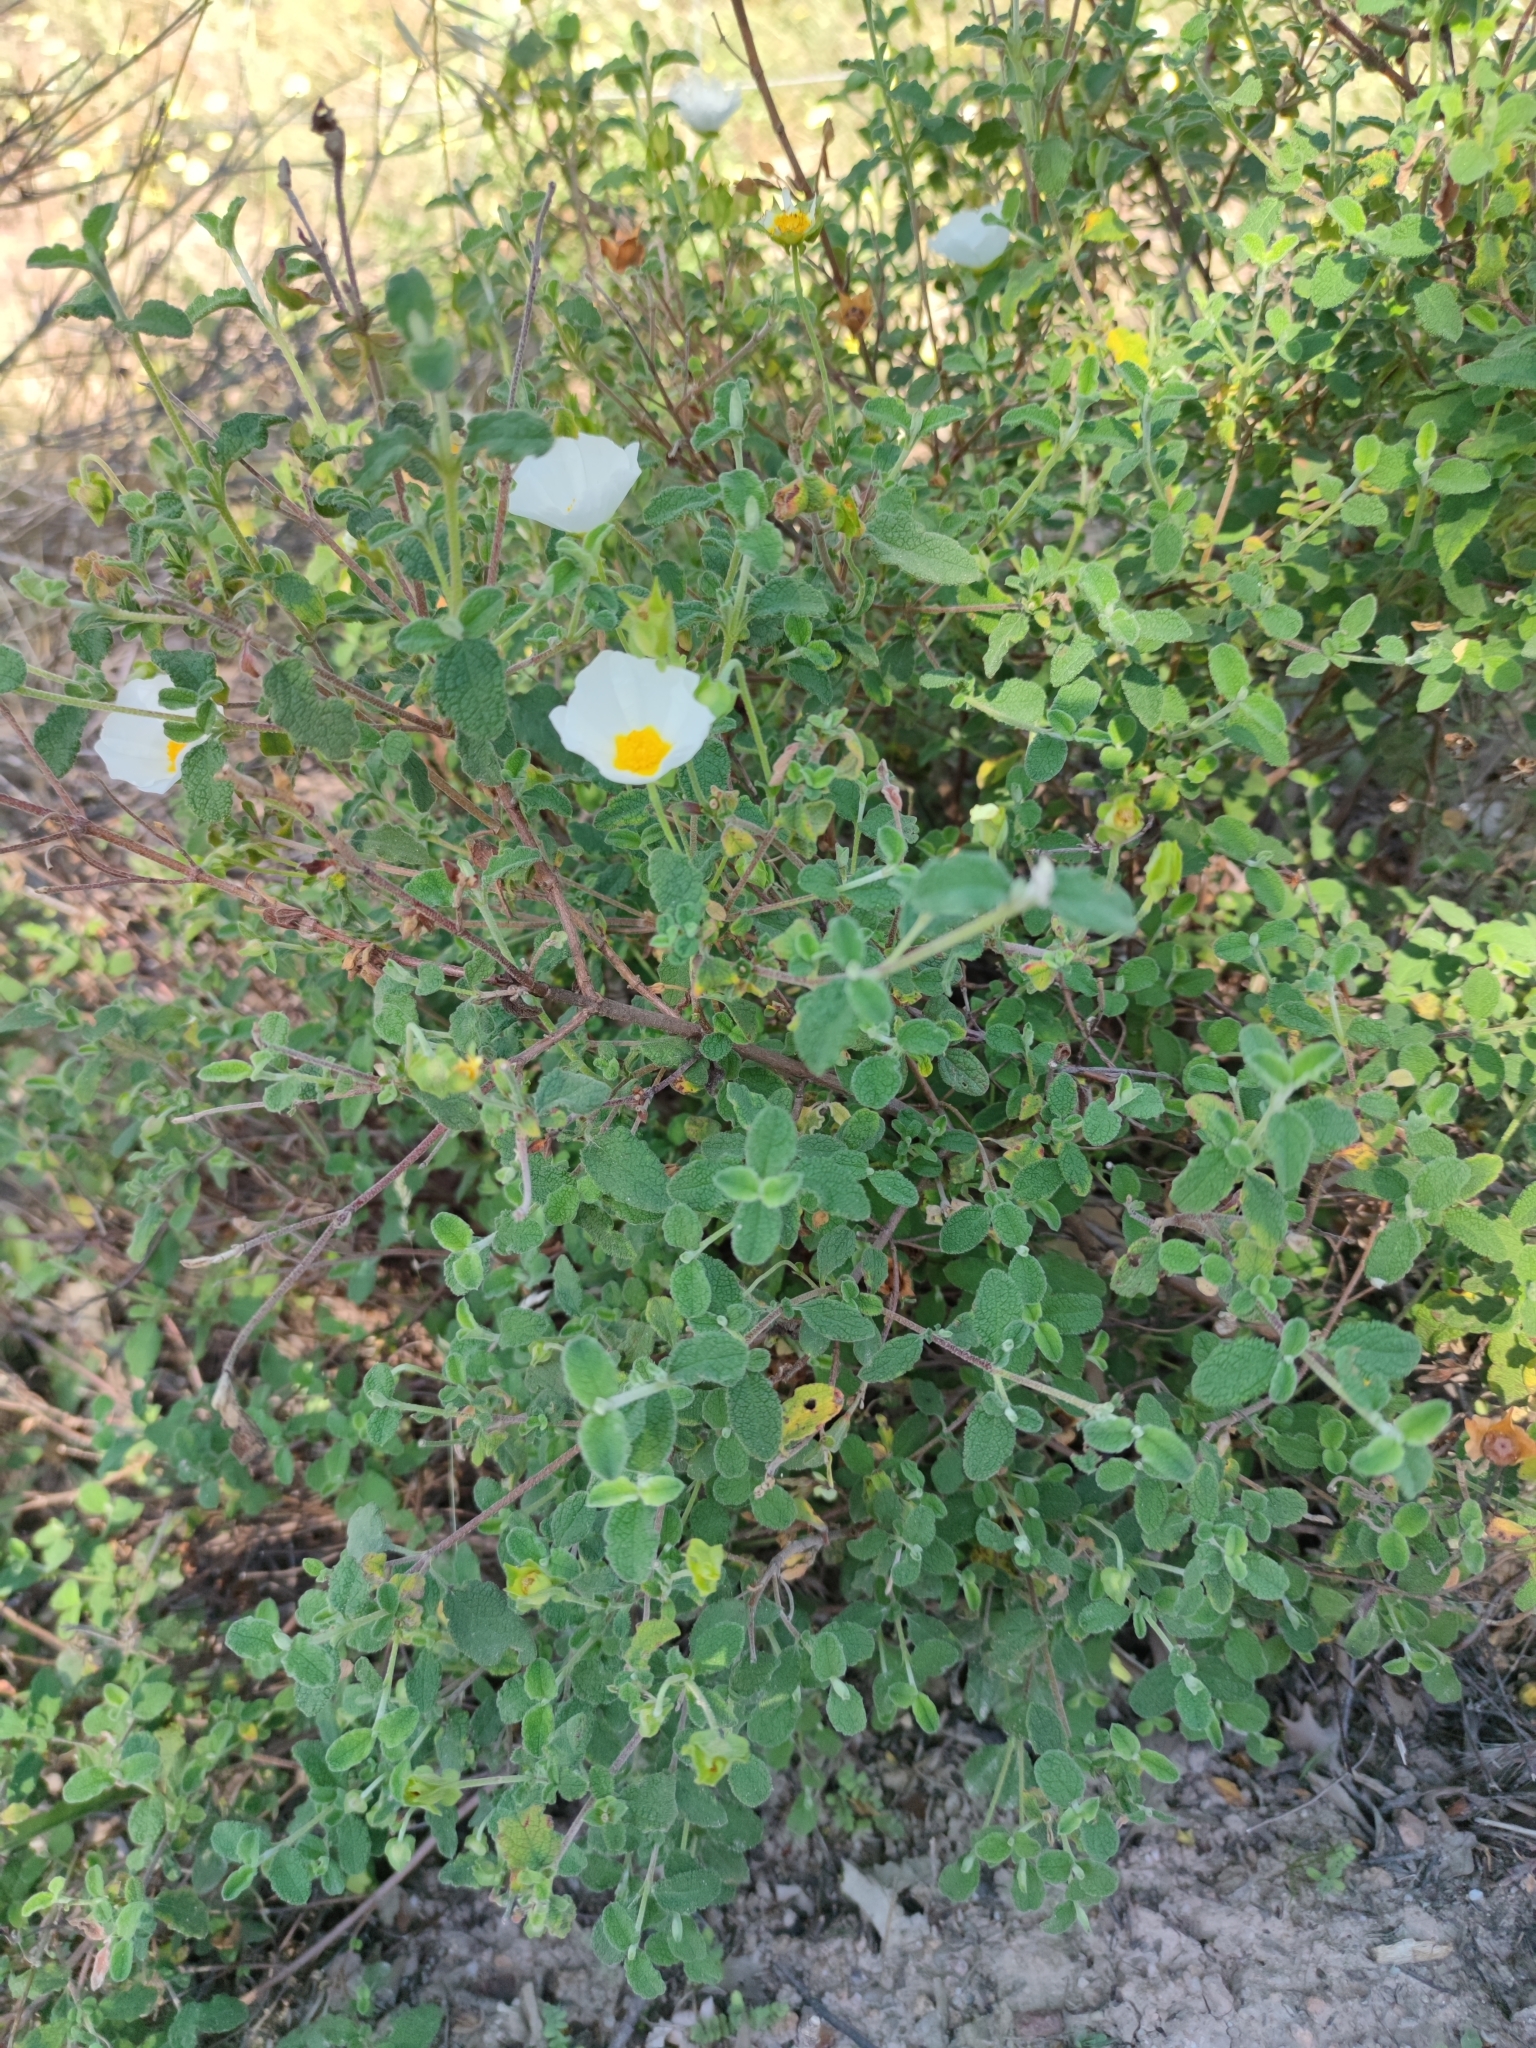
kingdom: Plantae
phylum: Tracheophyta
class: Magnoliopsida
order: Malvales
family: Cistaceae
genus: Cistus
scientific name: Cistus salviifolius
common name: Salvia cistus
